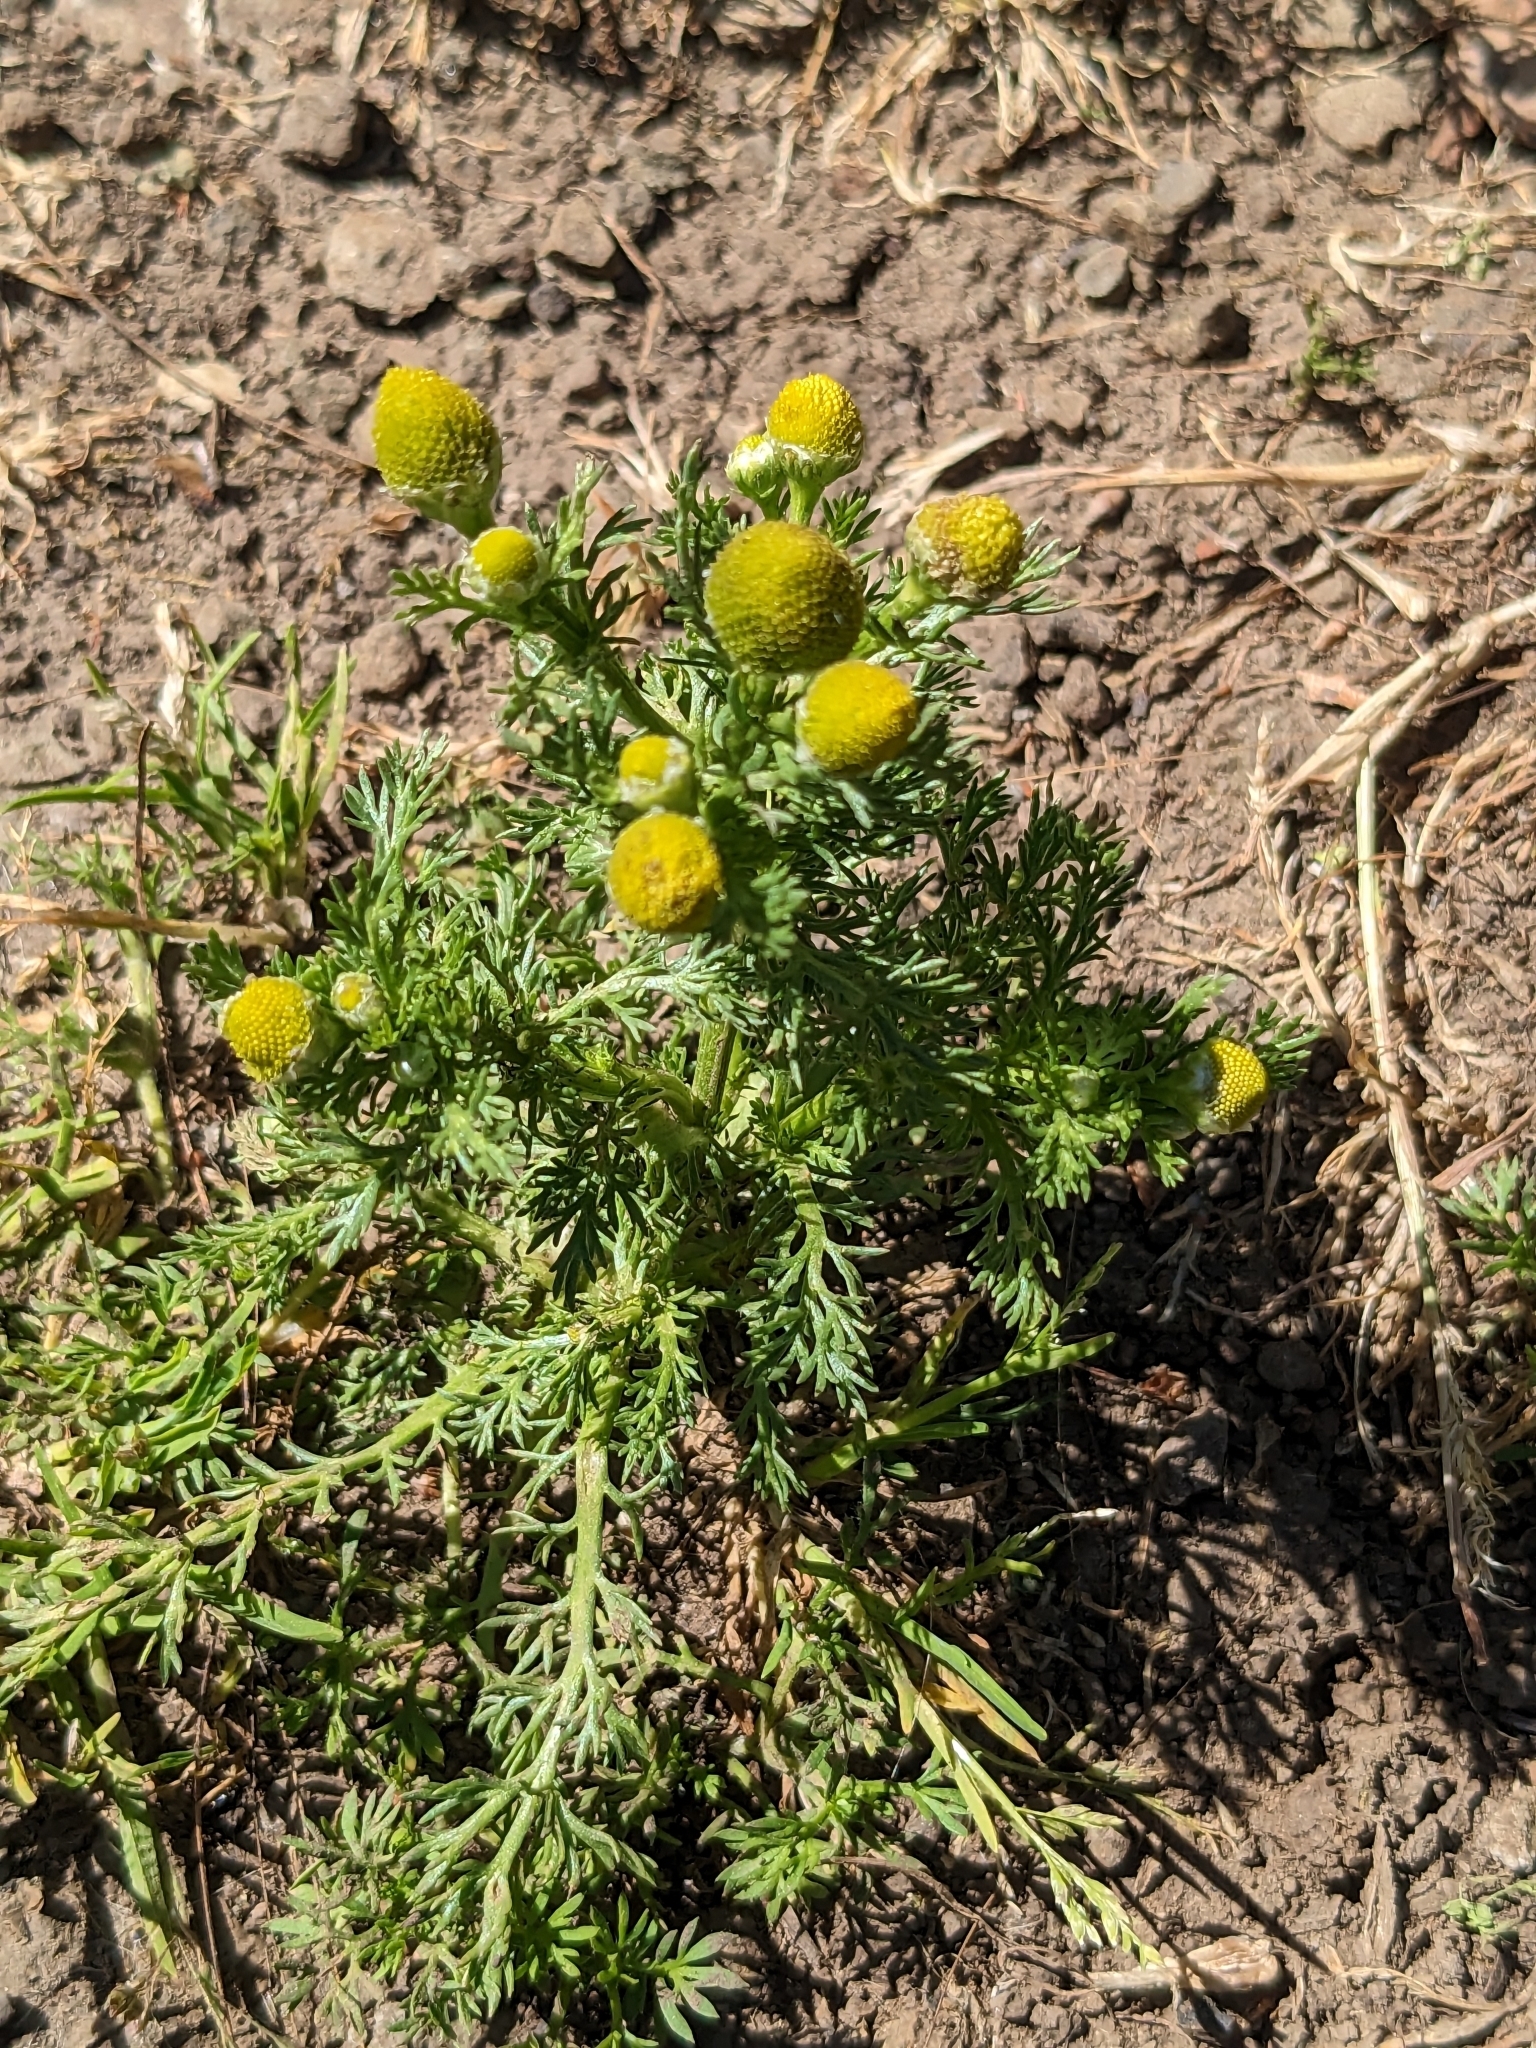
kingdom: Plantae
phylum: Tracheophyta
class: Magnoliopsida
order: Asterales
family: Asteraceae
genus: Matricaria
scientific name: Matricaria discoidea
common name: Disc mayweed
